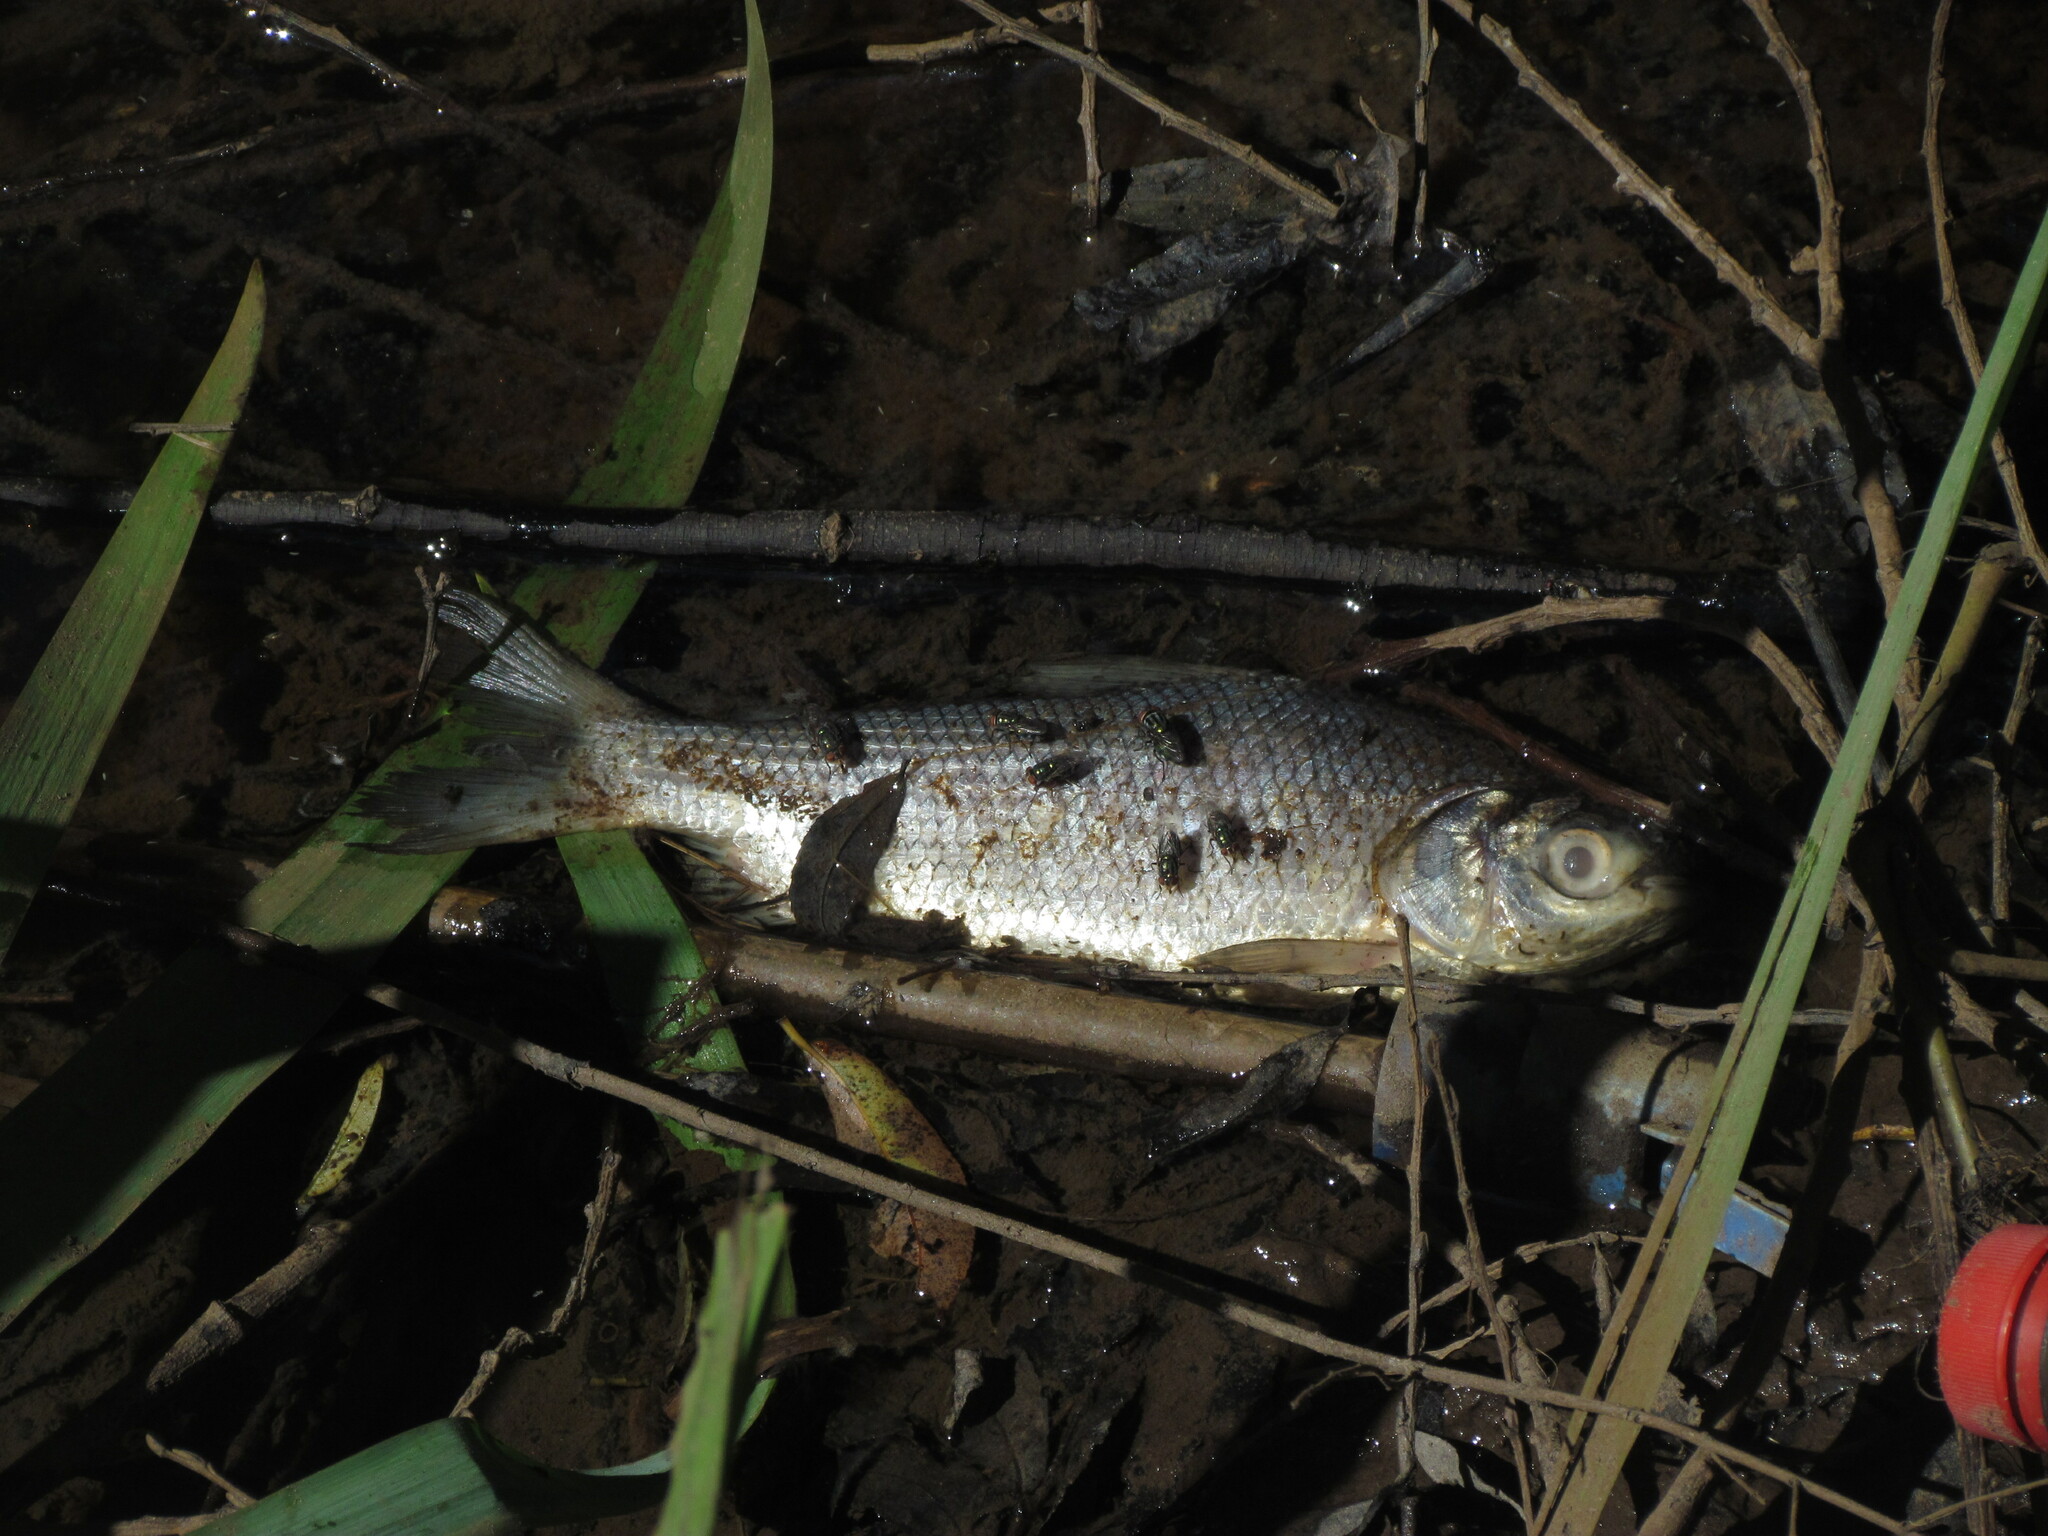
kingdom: Animalia
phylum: Chordata
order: Characiformes
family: Prochilodontidae
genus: Prochilodus
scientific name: Prochilodus lineatus
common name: Curimbata
